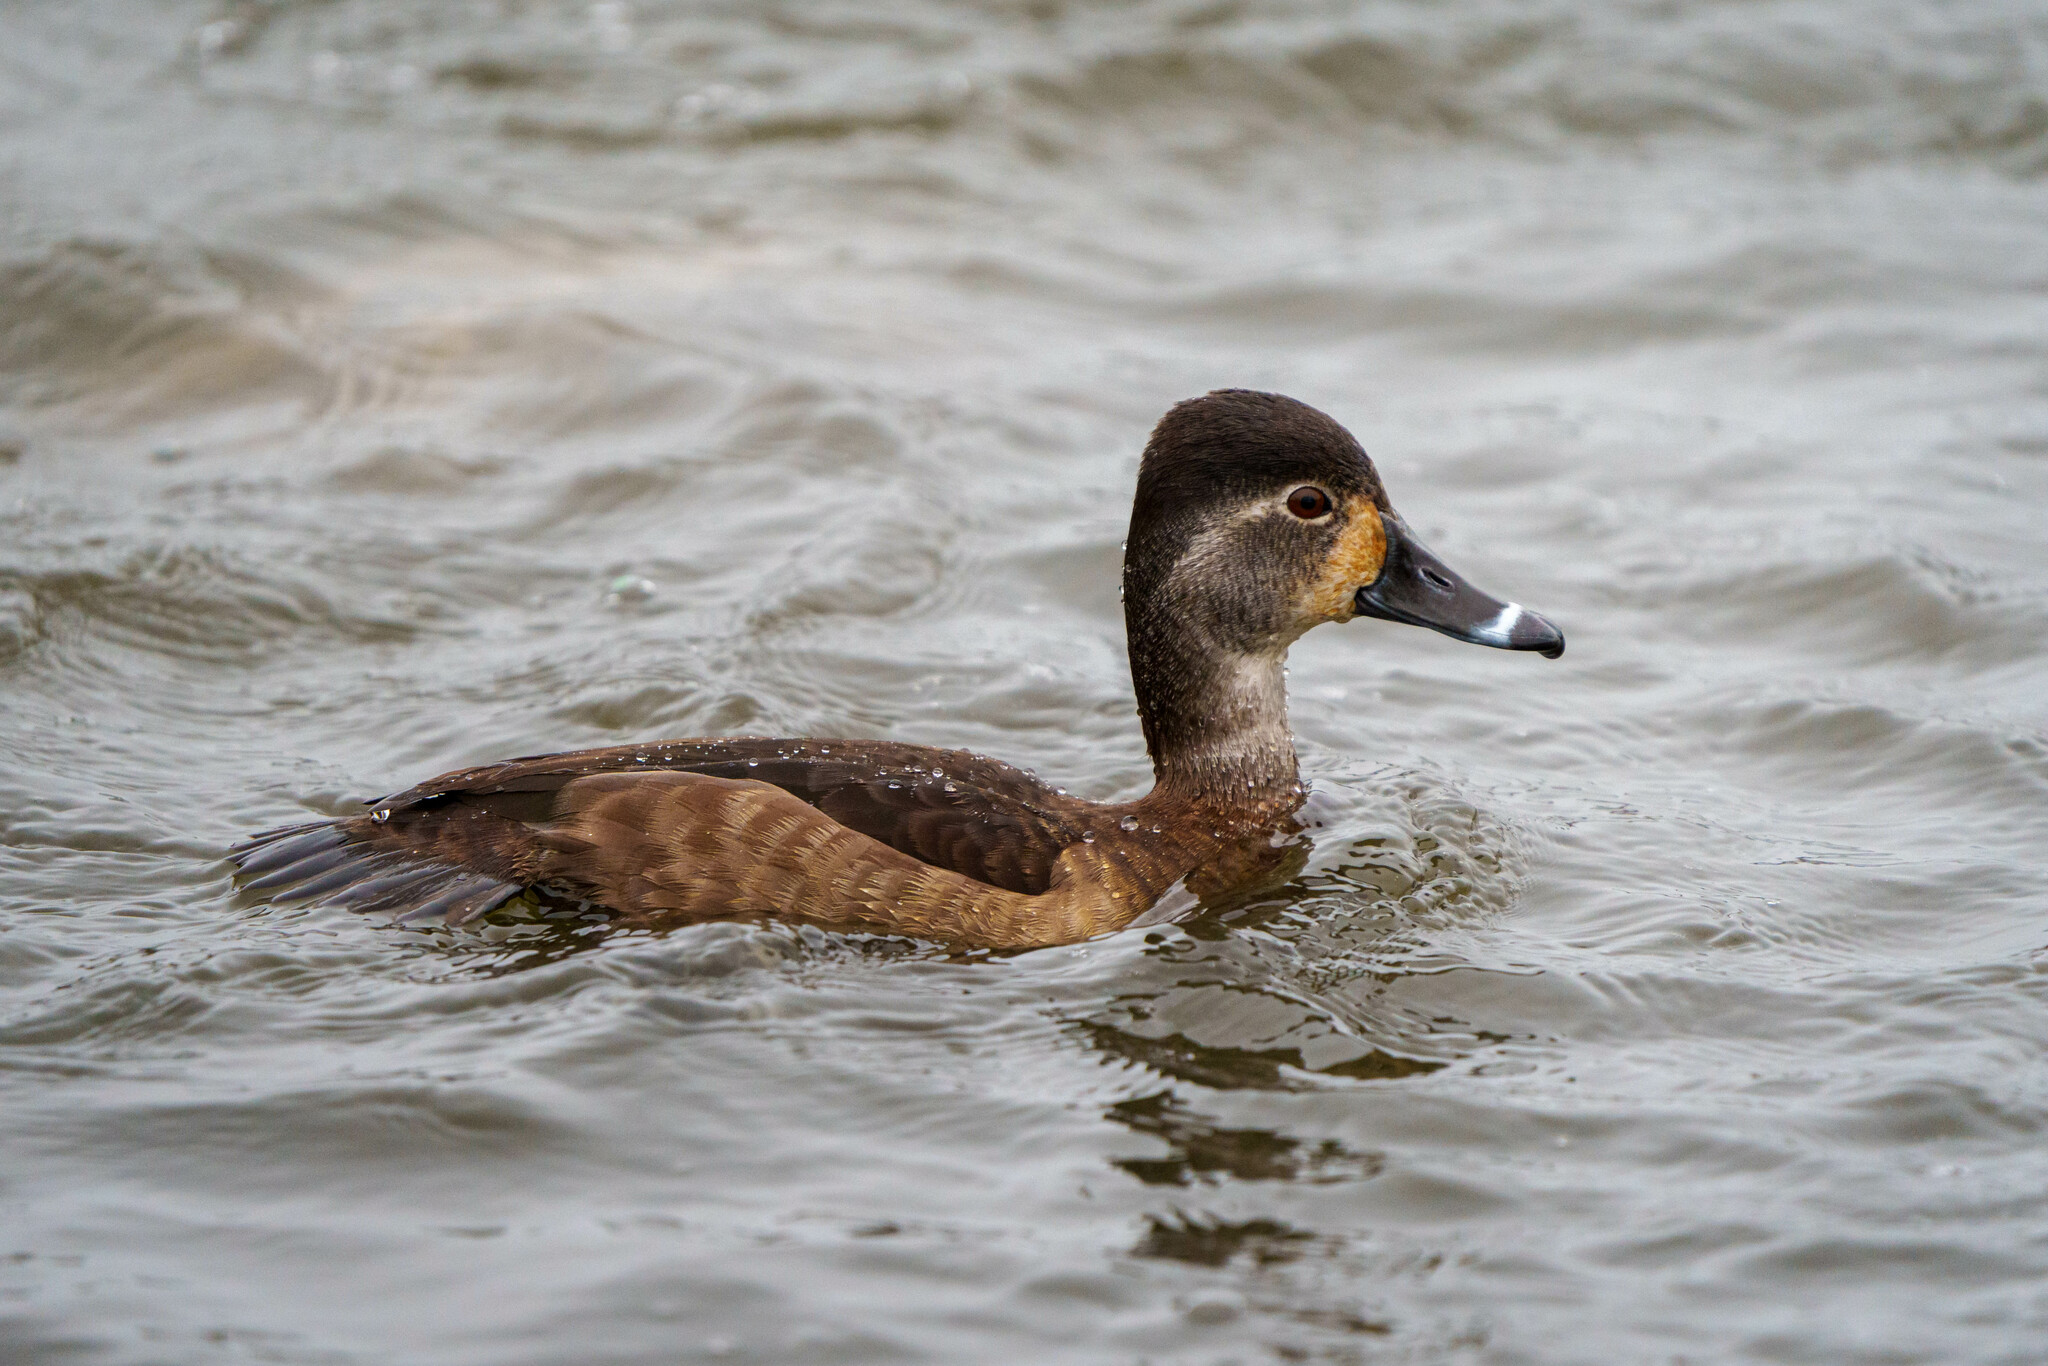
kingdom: Animalia
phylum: Chordata
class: Aves
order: Anseriformes
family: Anatidae
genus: Aythya
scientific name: Aythya collaris
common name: Ring-necked duck
